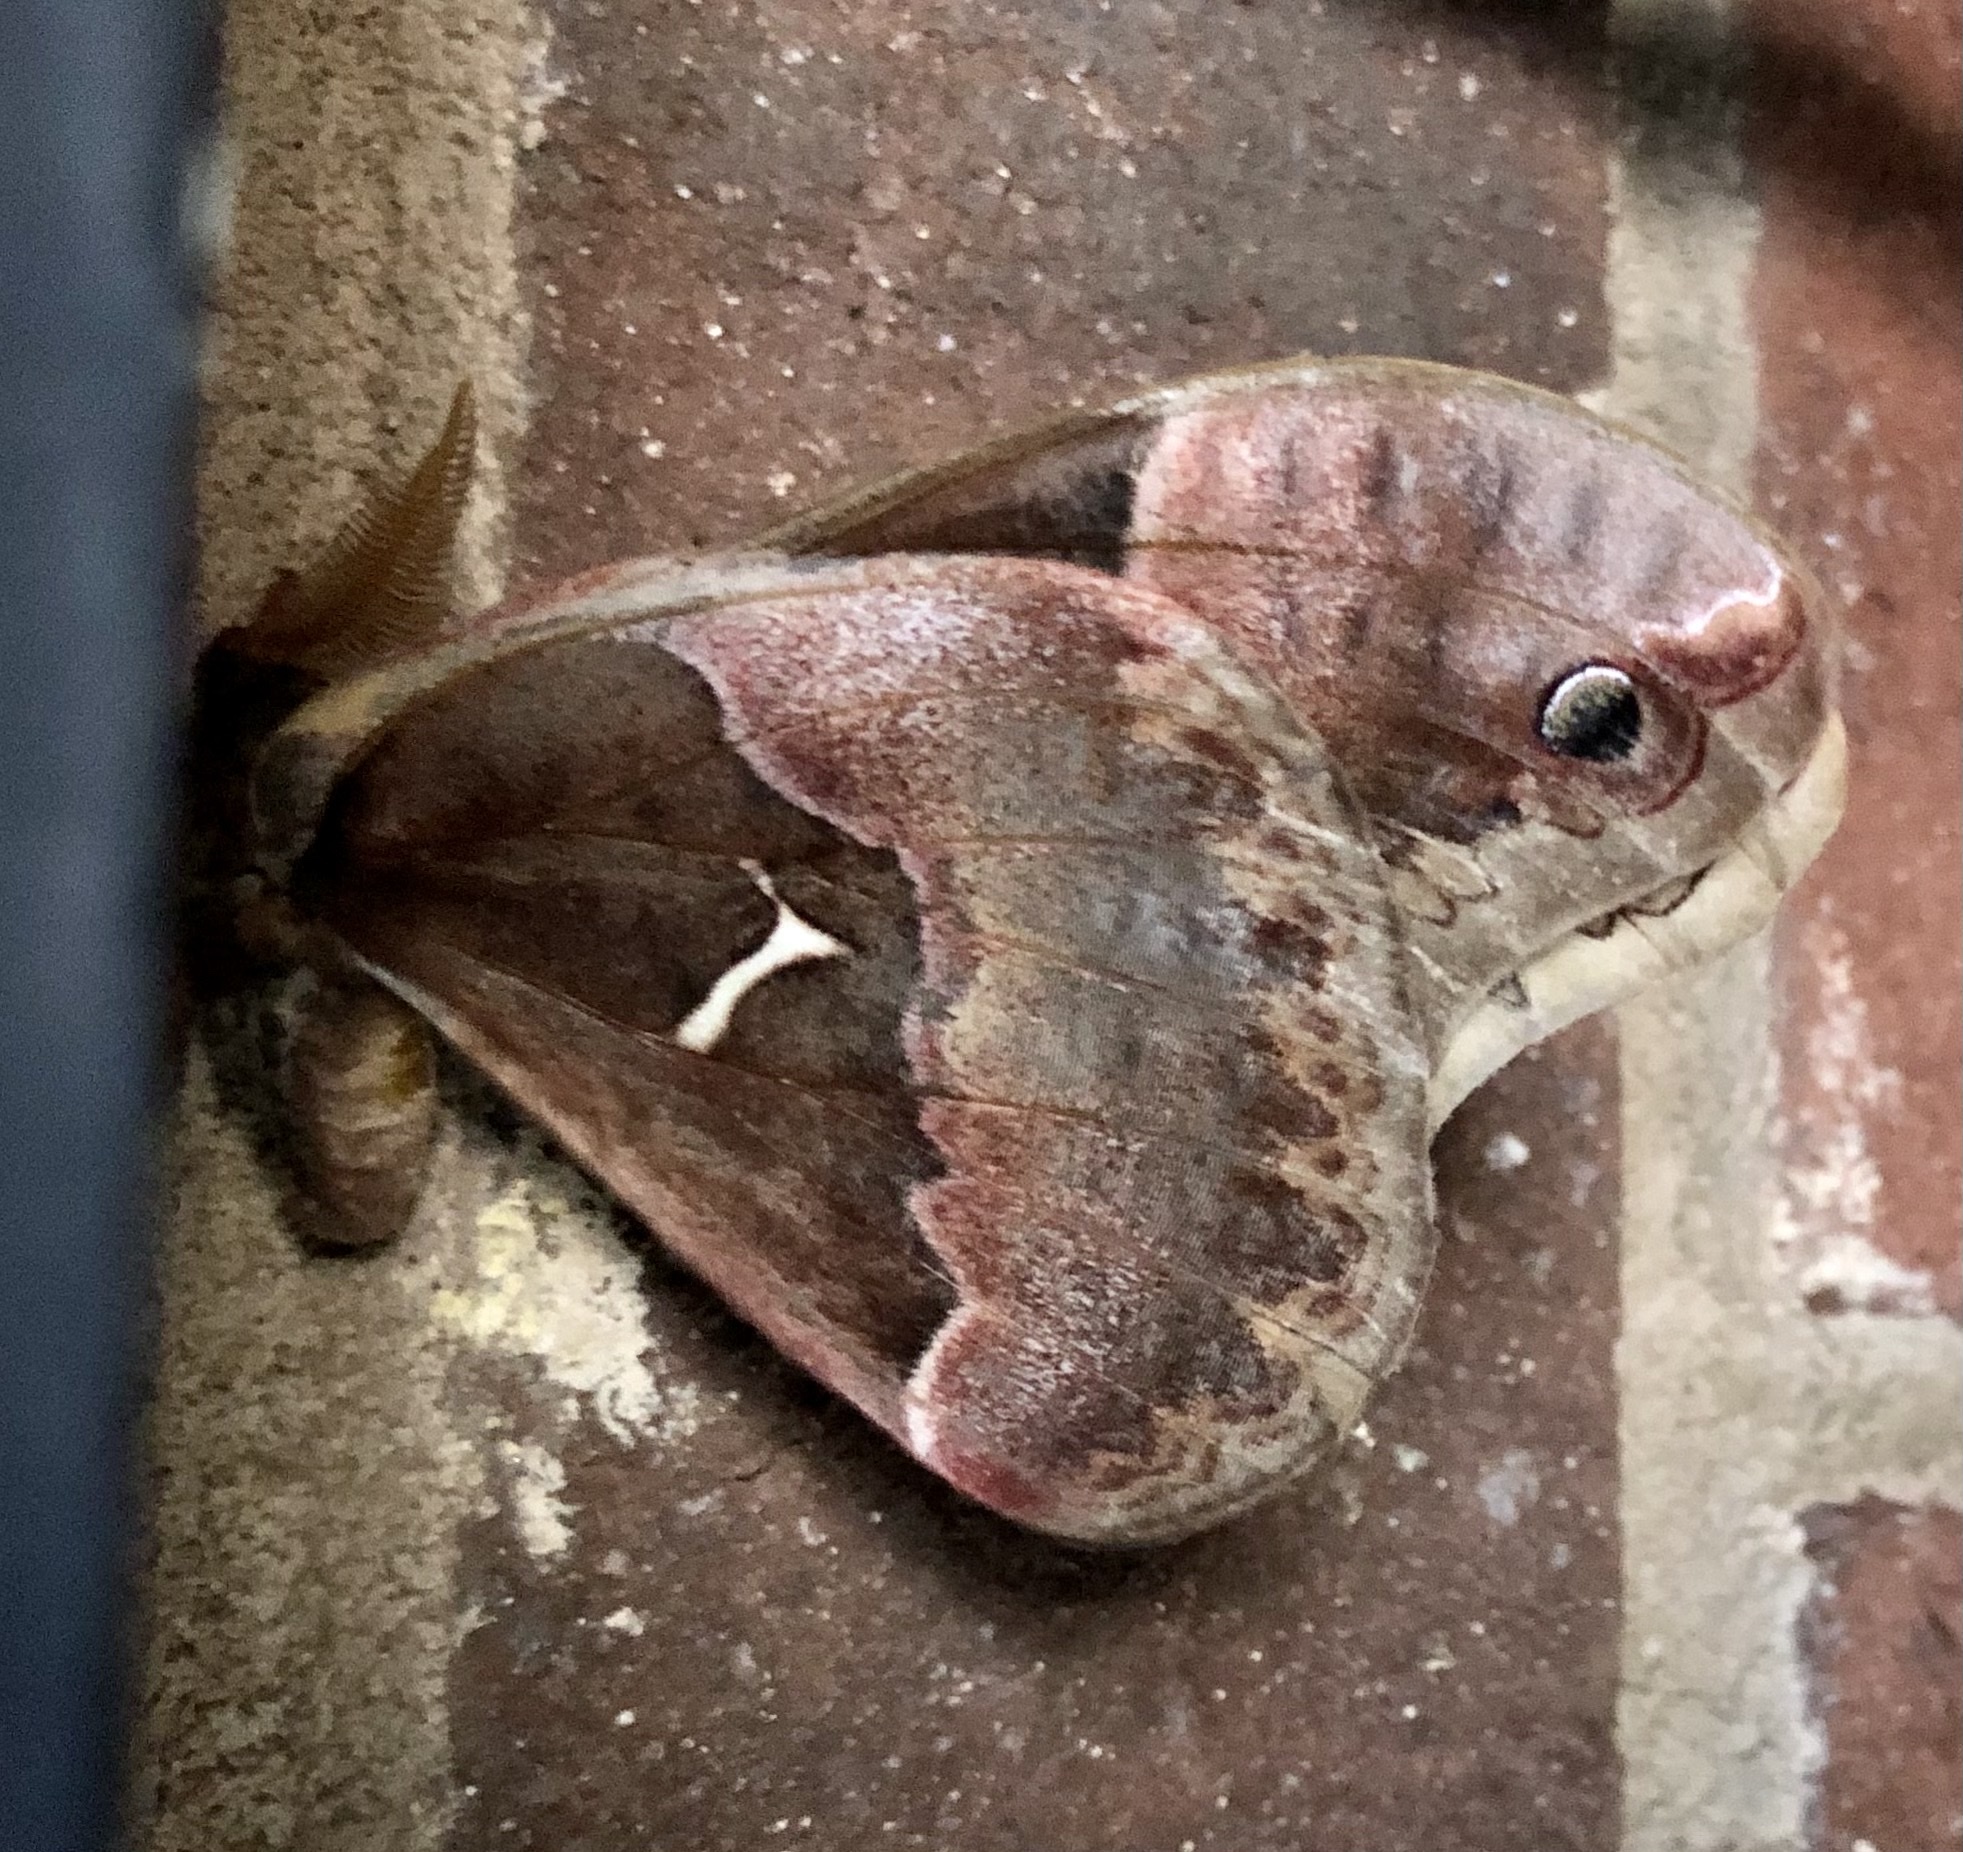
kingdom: Animalia
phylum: Arthropoda
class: Insecta
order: Lepidoptera
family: Saturniidae
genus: Callosamia
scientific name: Callosamia angulifera
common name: Tulip tree silkmoth
